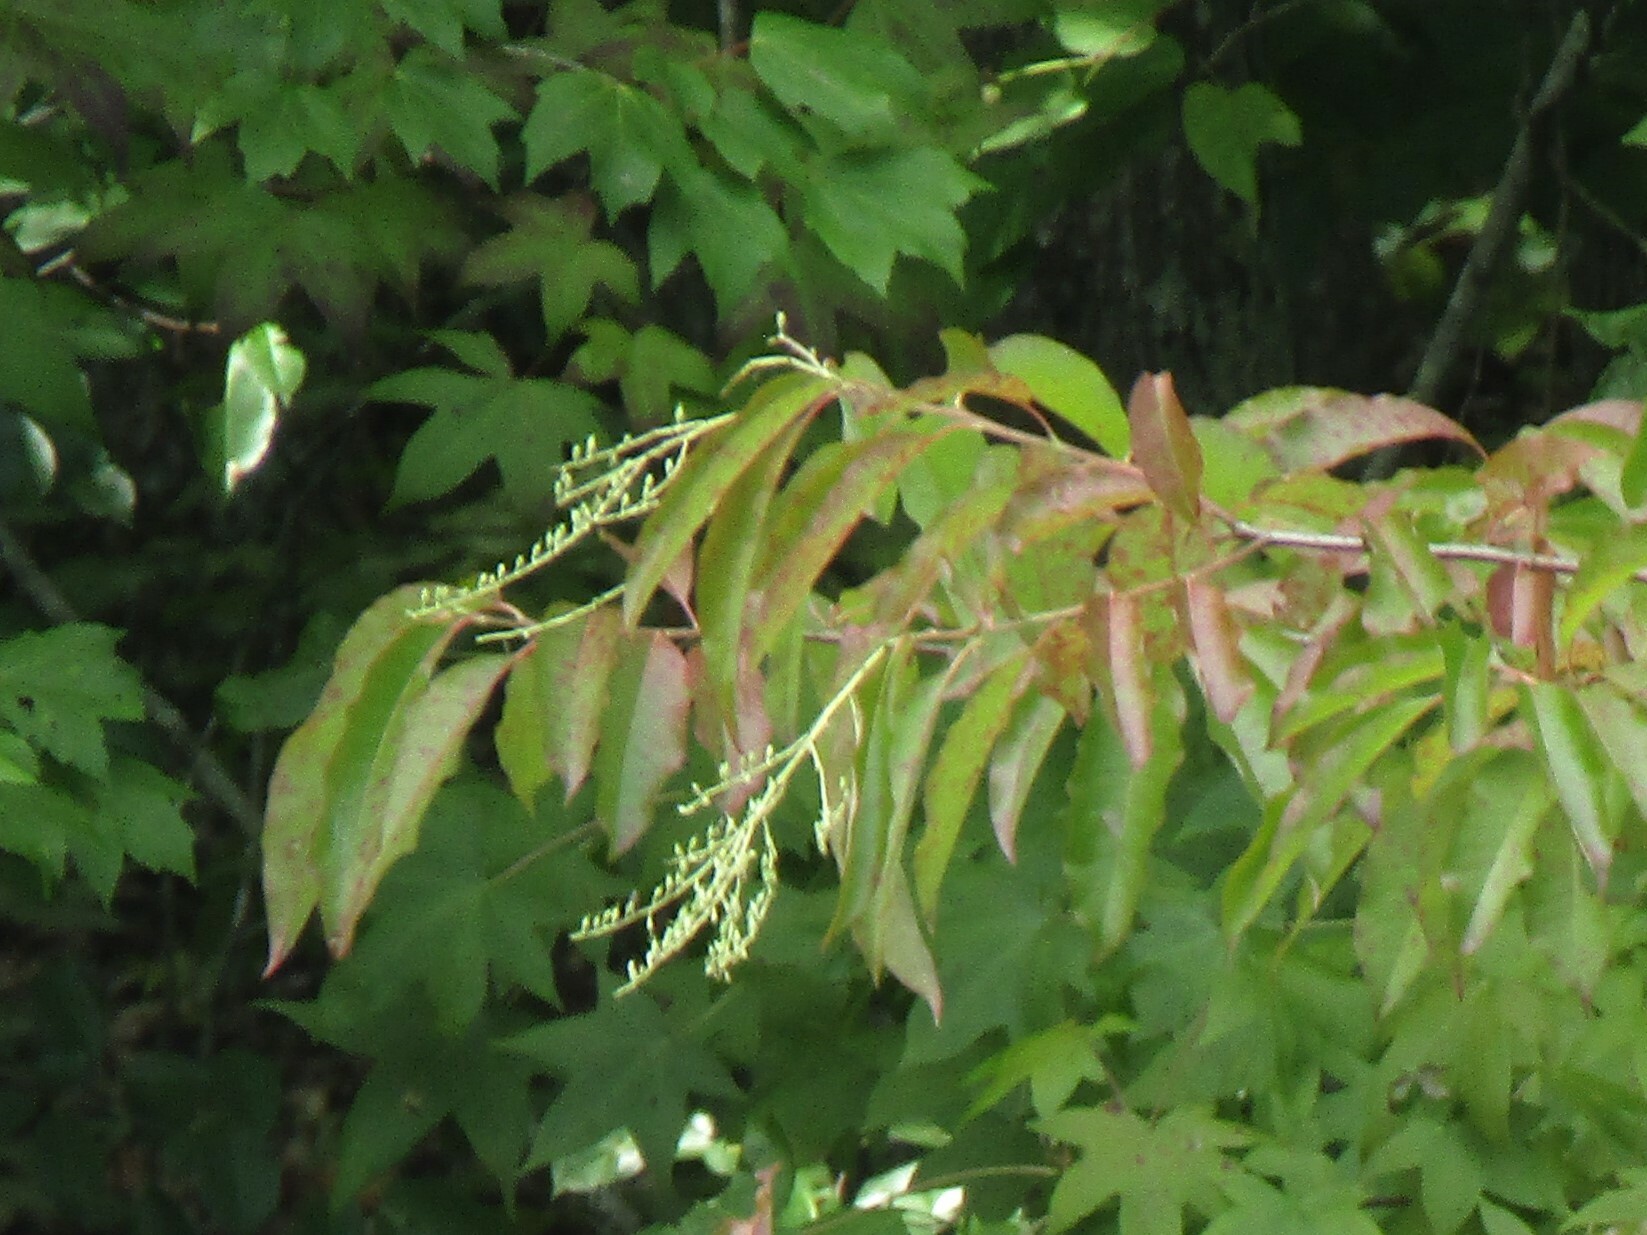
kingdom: Plantae
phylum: Tracheophyta
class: Magnoliopsida
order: Ericales
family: Ericaceae
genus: Oxydendrum
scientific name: Oxydendrum arboreum
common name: Sourwood
